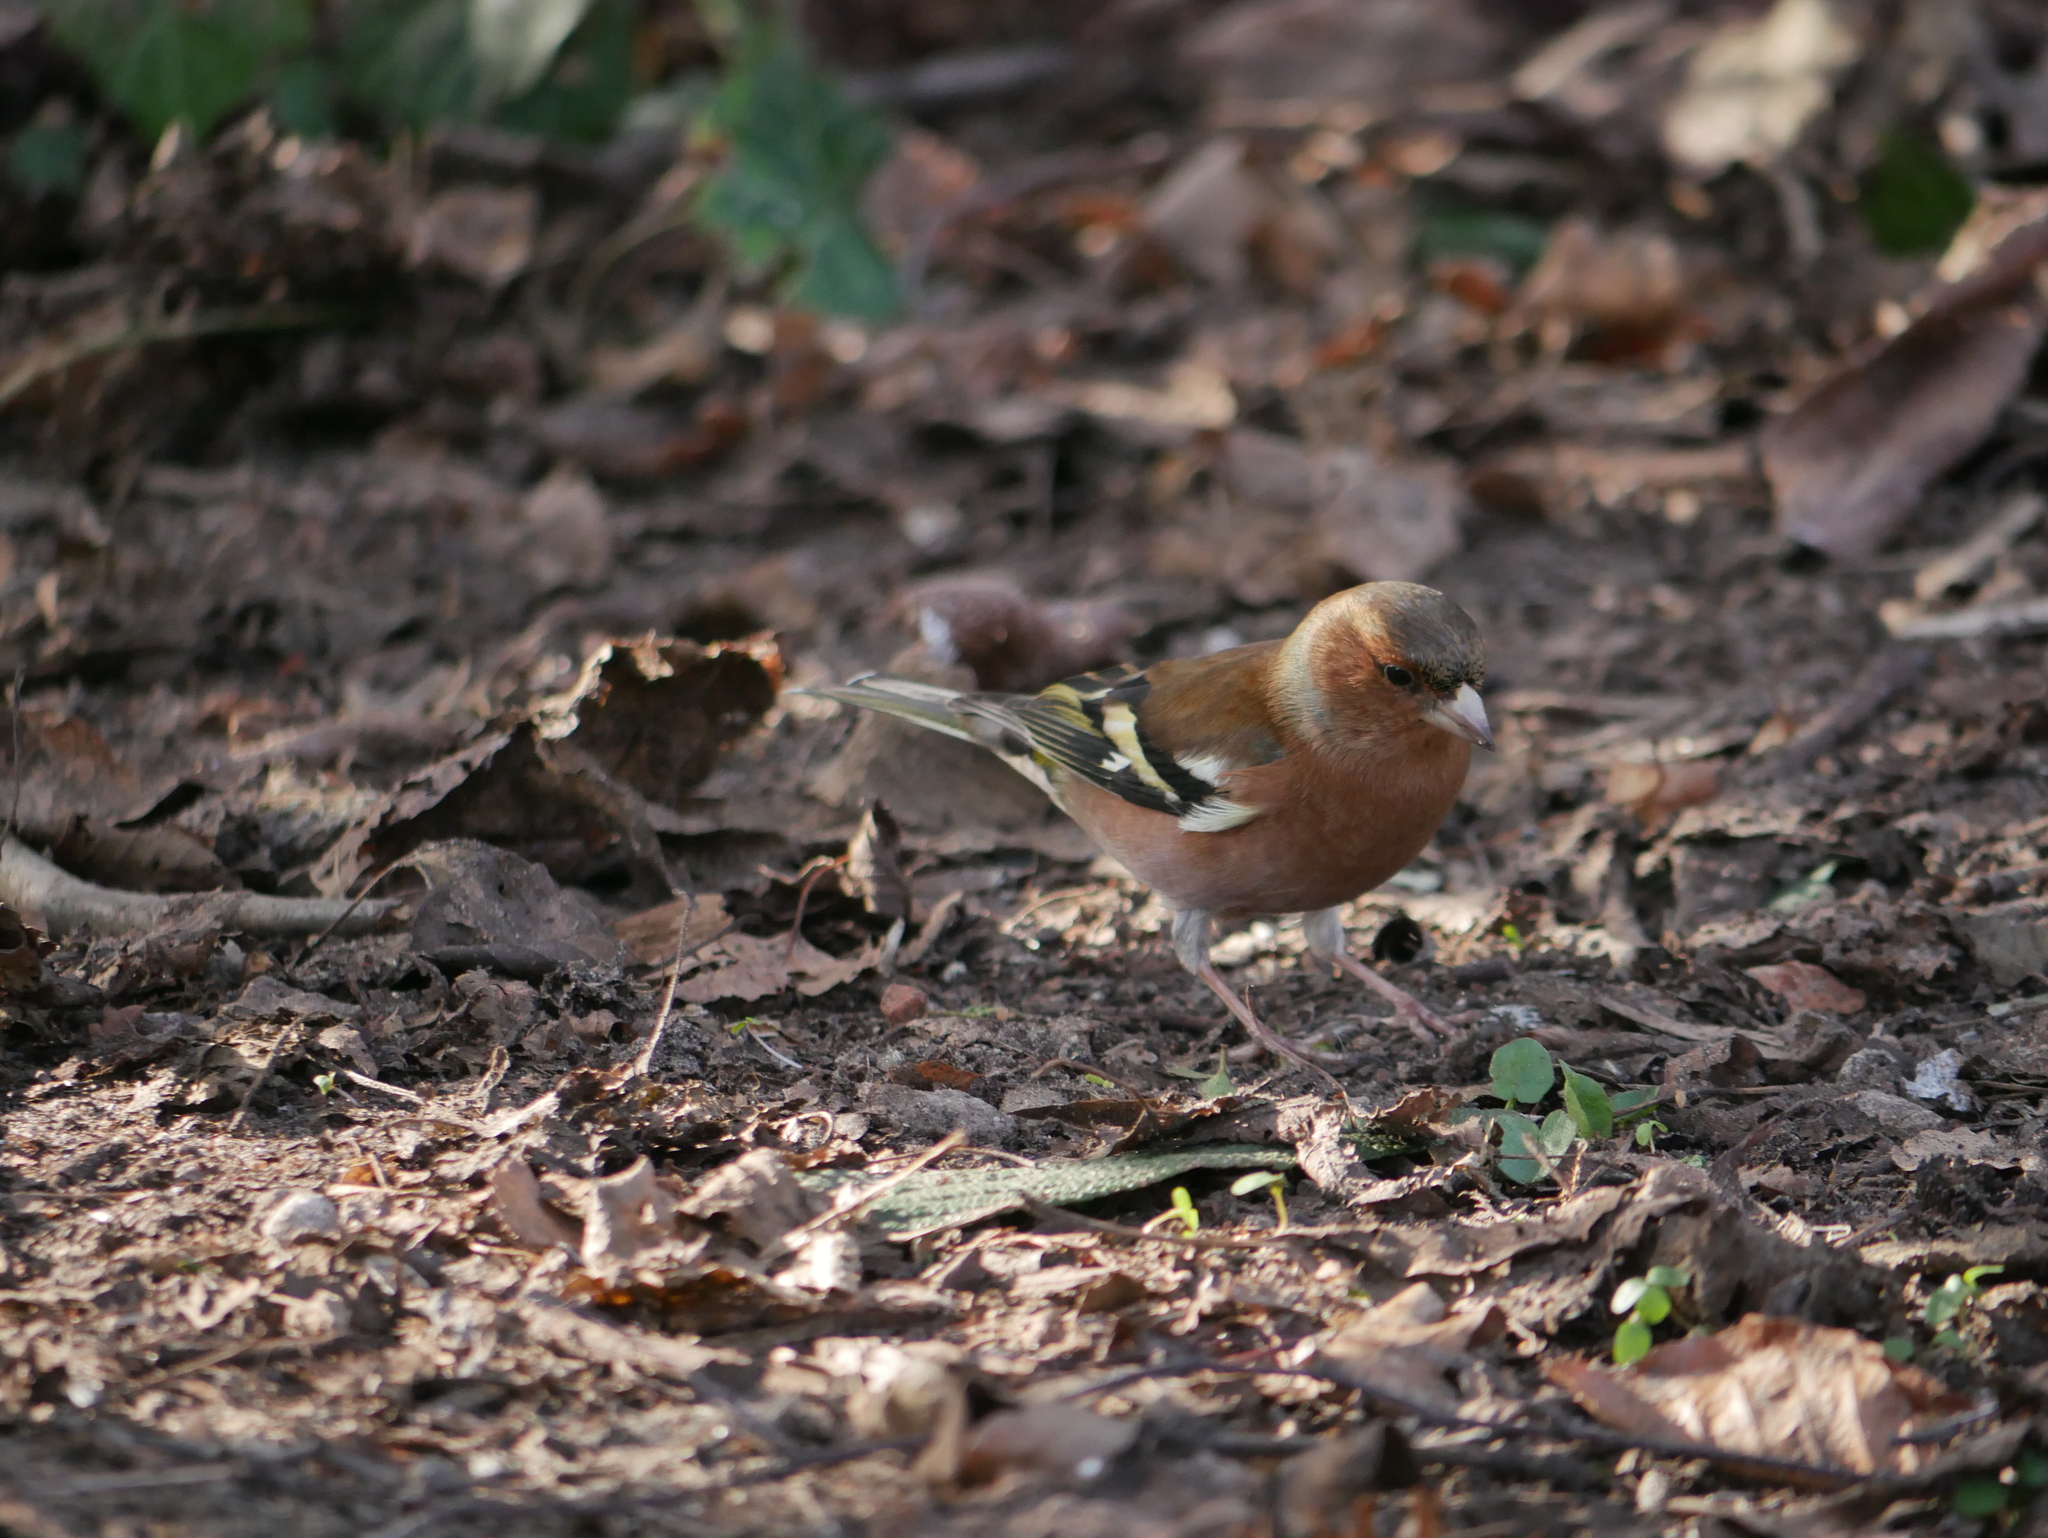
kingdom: Animalia
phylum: Chordata
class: Aves
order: Passeriformes
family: Fringillidae
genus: Fringilla
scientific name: Fringilla coelebs
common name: Common chaffinch
